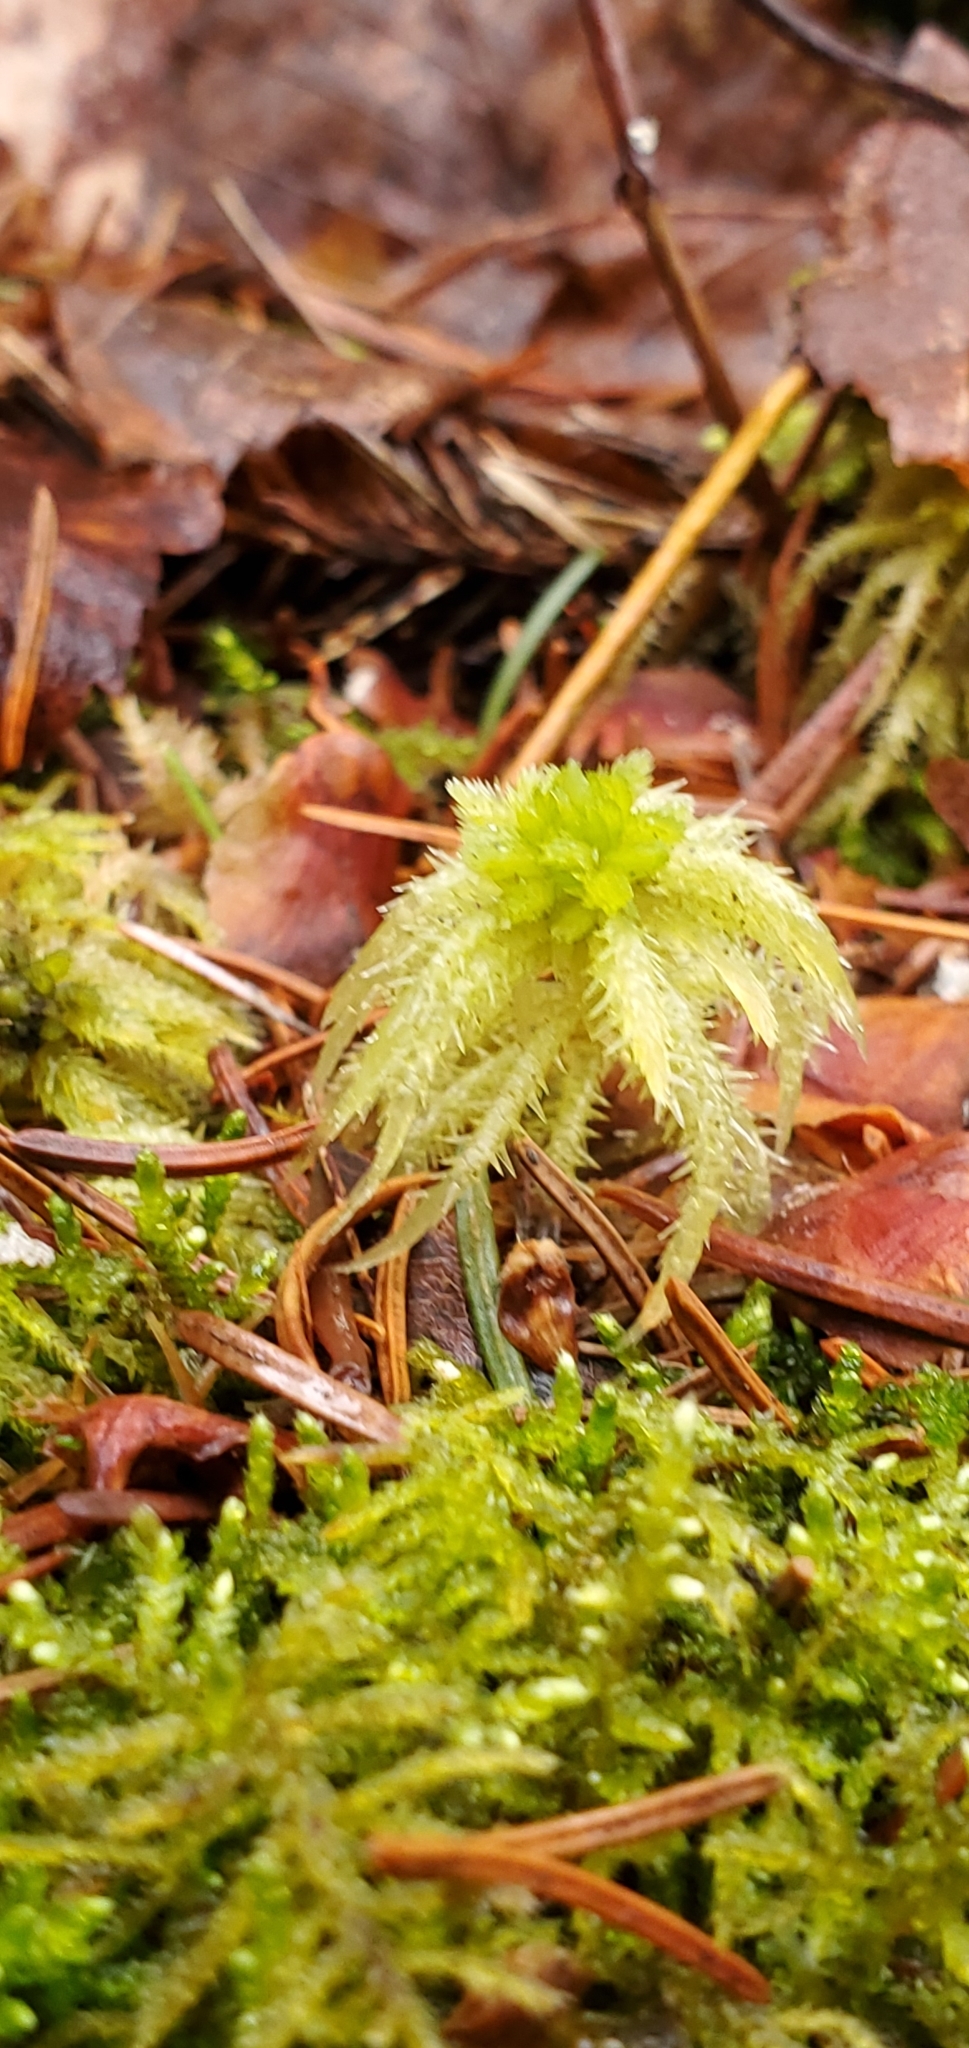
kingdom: Plantae
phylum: Bryophyta
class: Sphagnopsida
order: Sphagnales
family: Sphagnaceae
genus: Sphagnum
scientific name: Sphagnum squarrosum
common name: Shaggy peat moss
